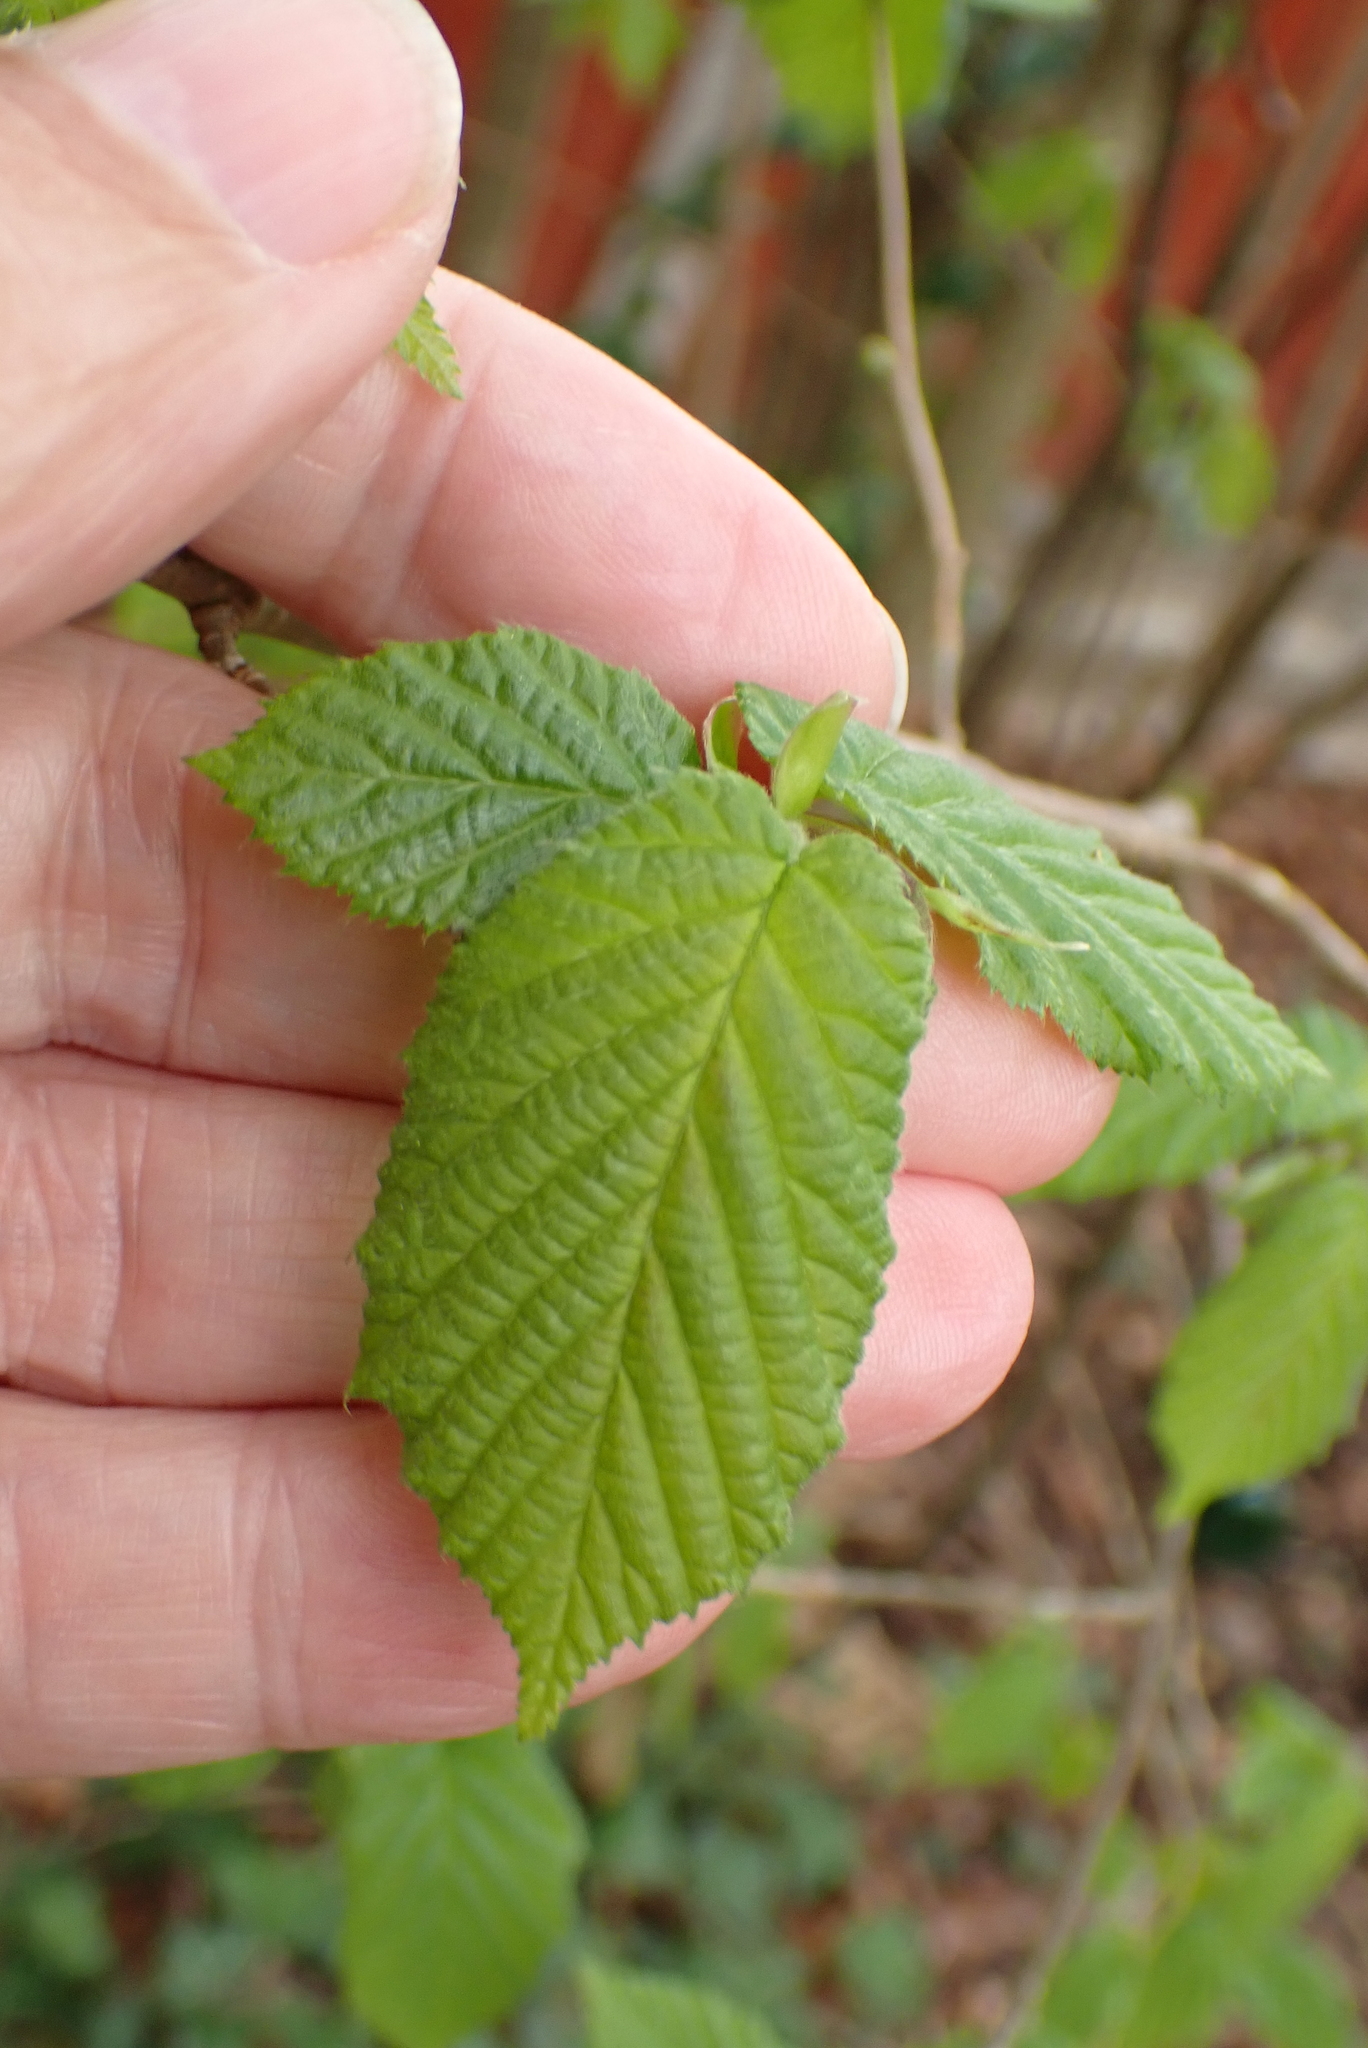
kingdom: Plantae
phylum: Tracheophyta
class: Magnoliopsida
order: Fagales
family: Betulaceae
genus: Corylus
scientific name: Corylus avellana
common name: European hazel
